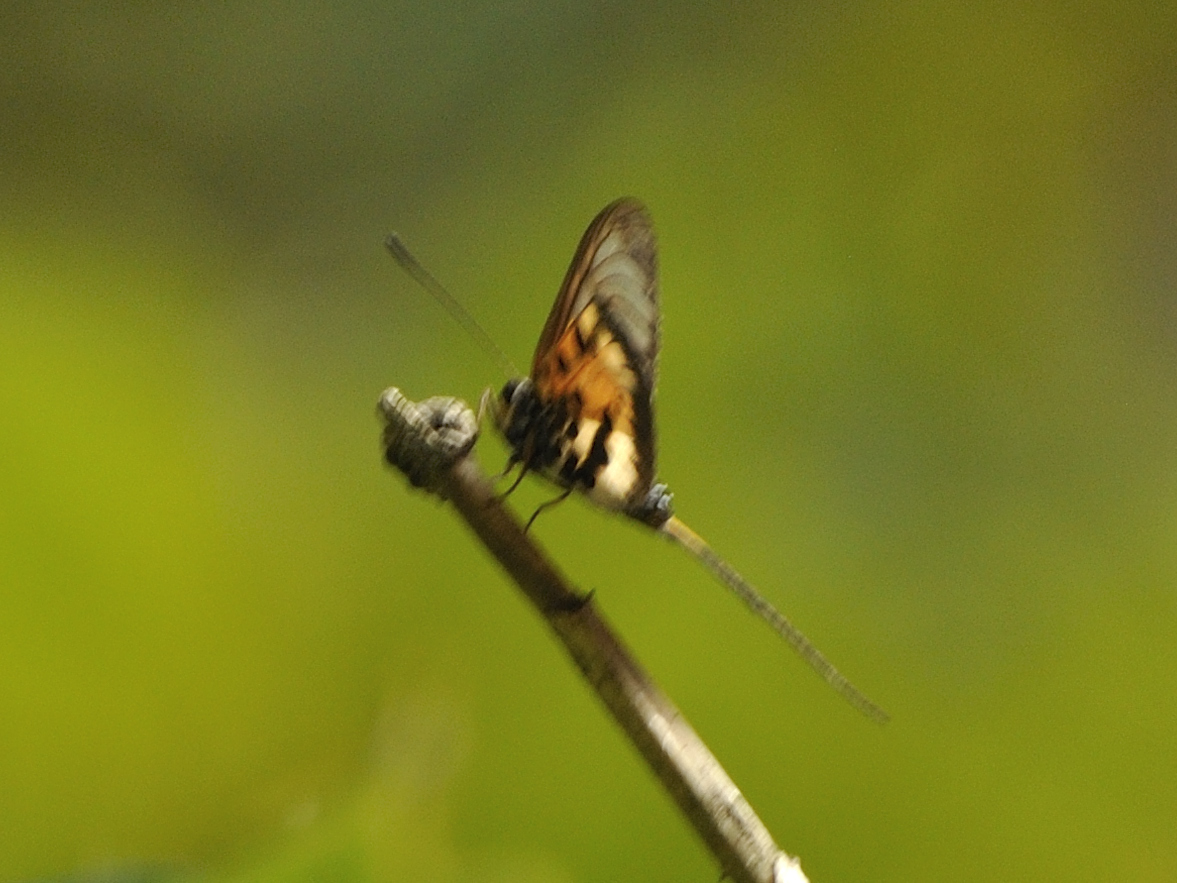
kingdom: Animalia
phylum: Arthropoda
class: Insecta
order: Lepidoptera
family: Nymphalidae
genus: Acraea
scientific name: Acraea
